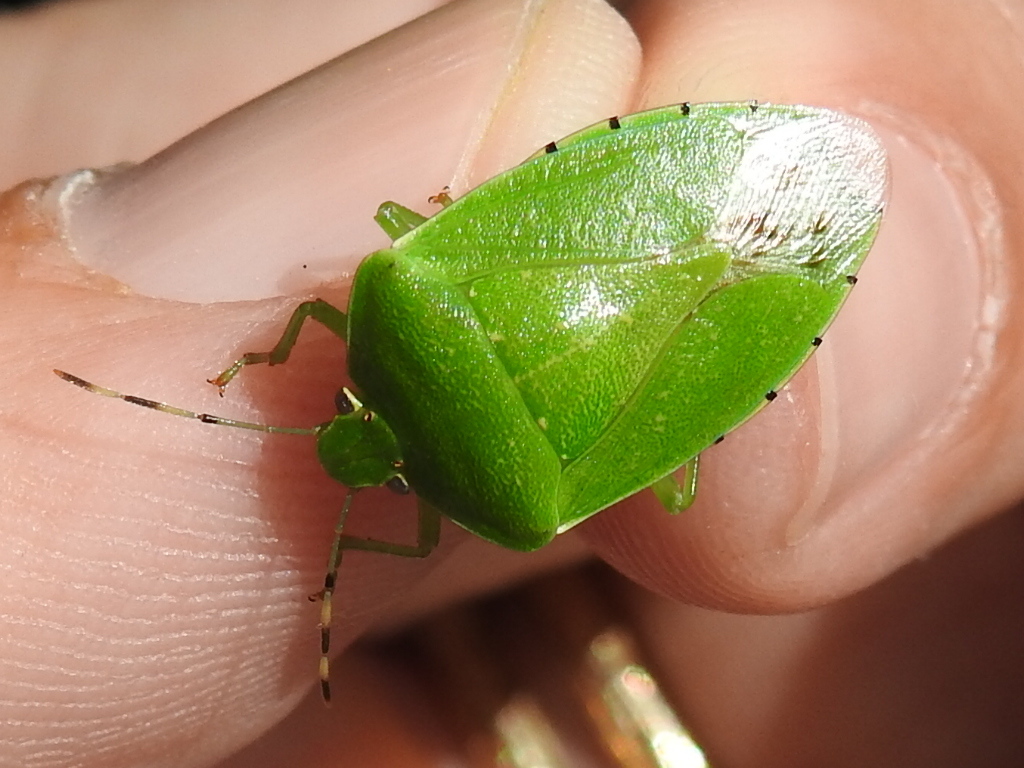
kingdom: Animalia
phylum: Arthropoda
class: Insecta
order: Hemiptera
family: Pentatomidae
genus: Chinavia
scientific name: Chinavia hilaris
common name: Green stink bug
